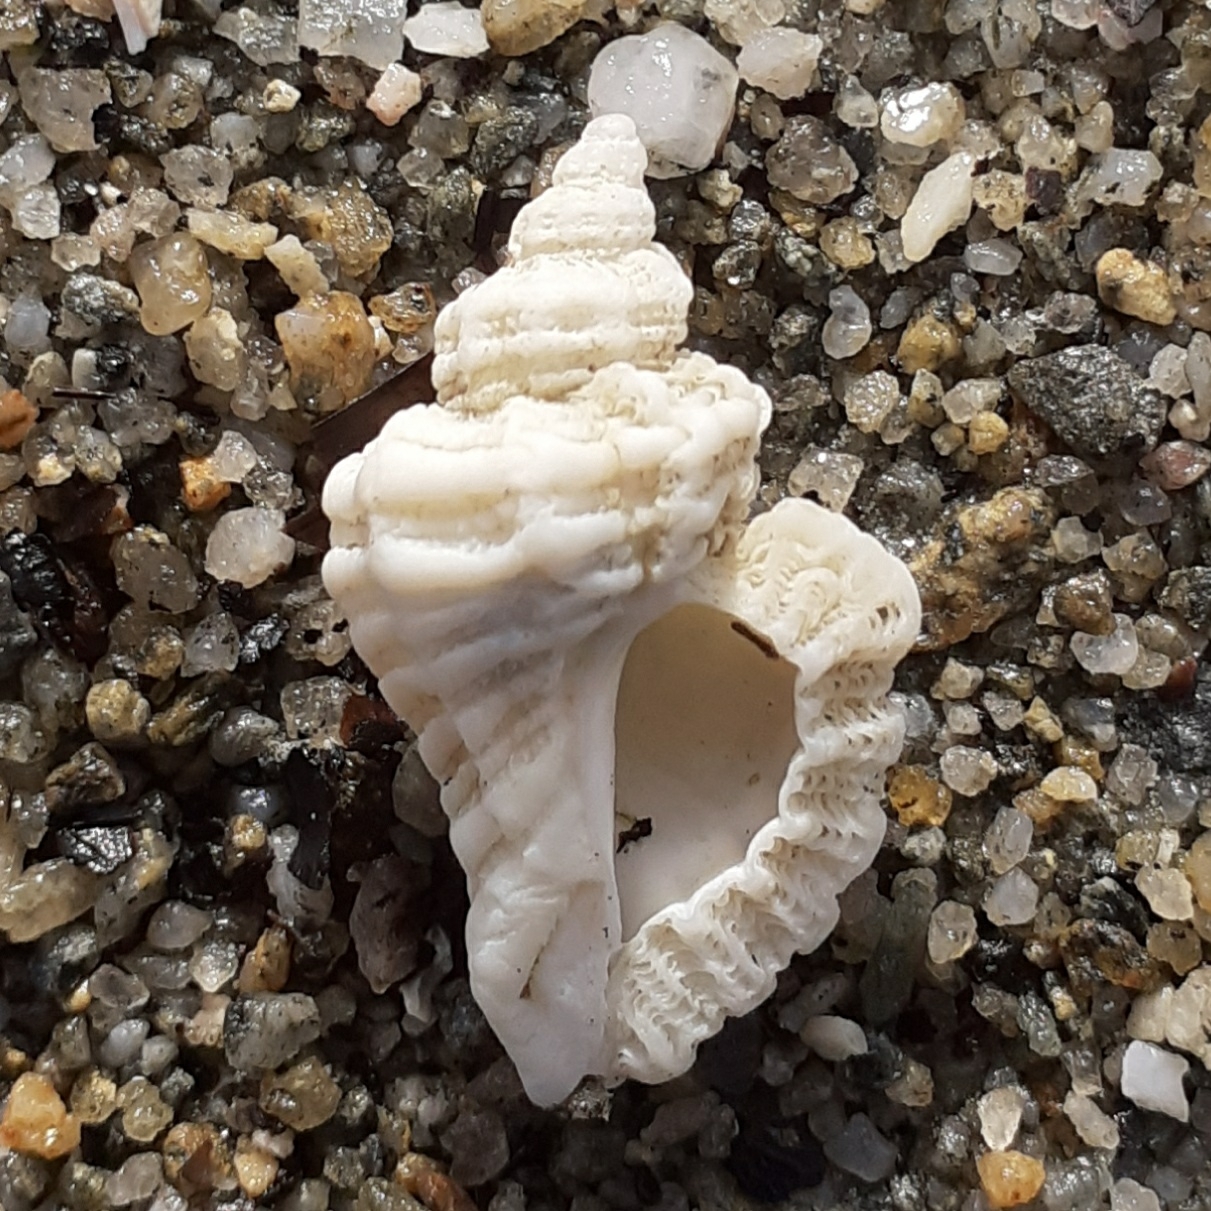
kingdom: Animalia
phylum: Mollusca
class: Gastropoda
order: Neogastropoda
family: Muricidae
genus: Ocenebra
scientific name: Ocenebra erinaceus
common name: European sting winkle
